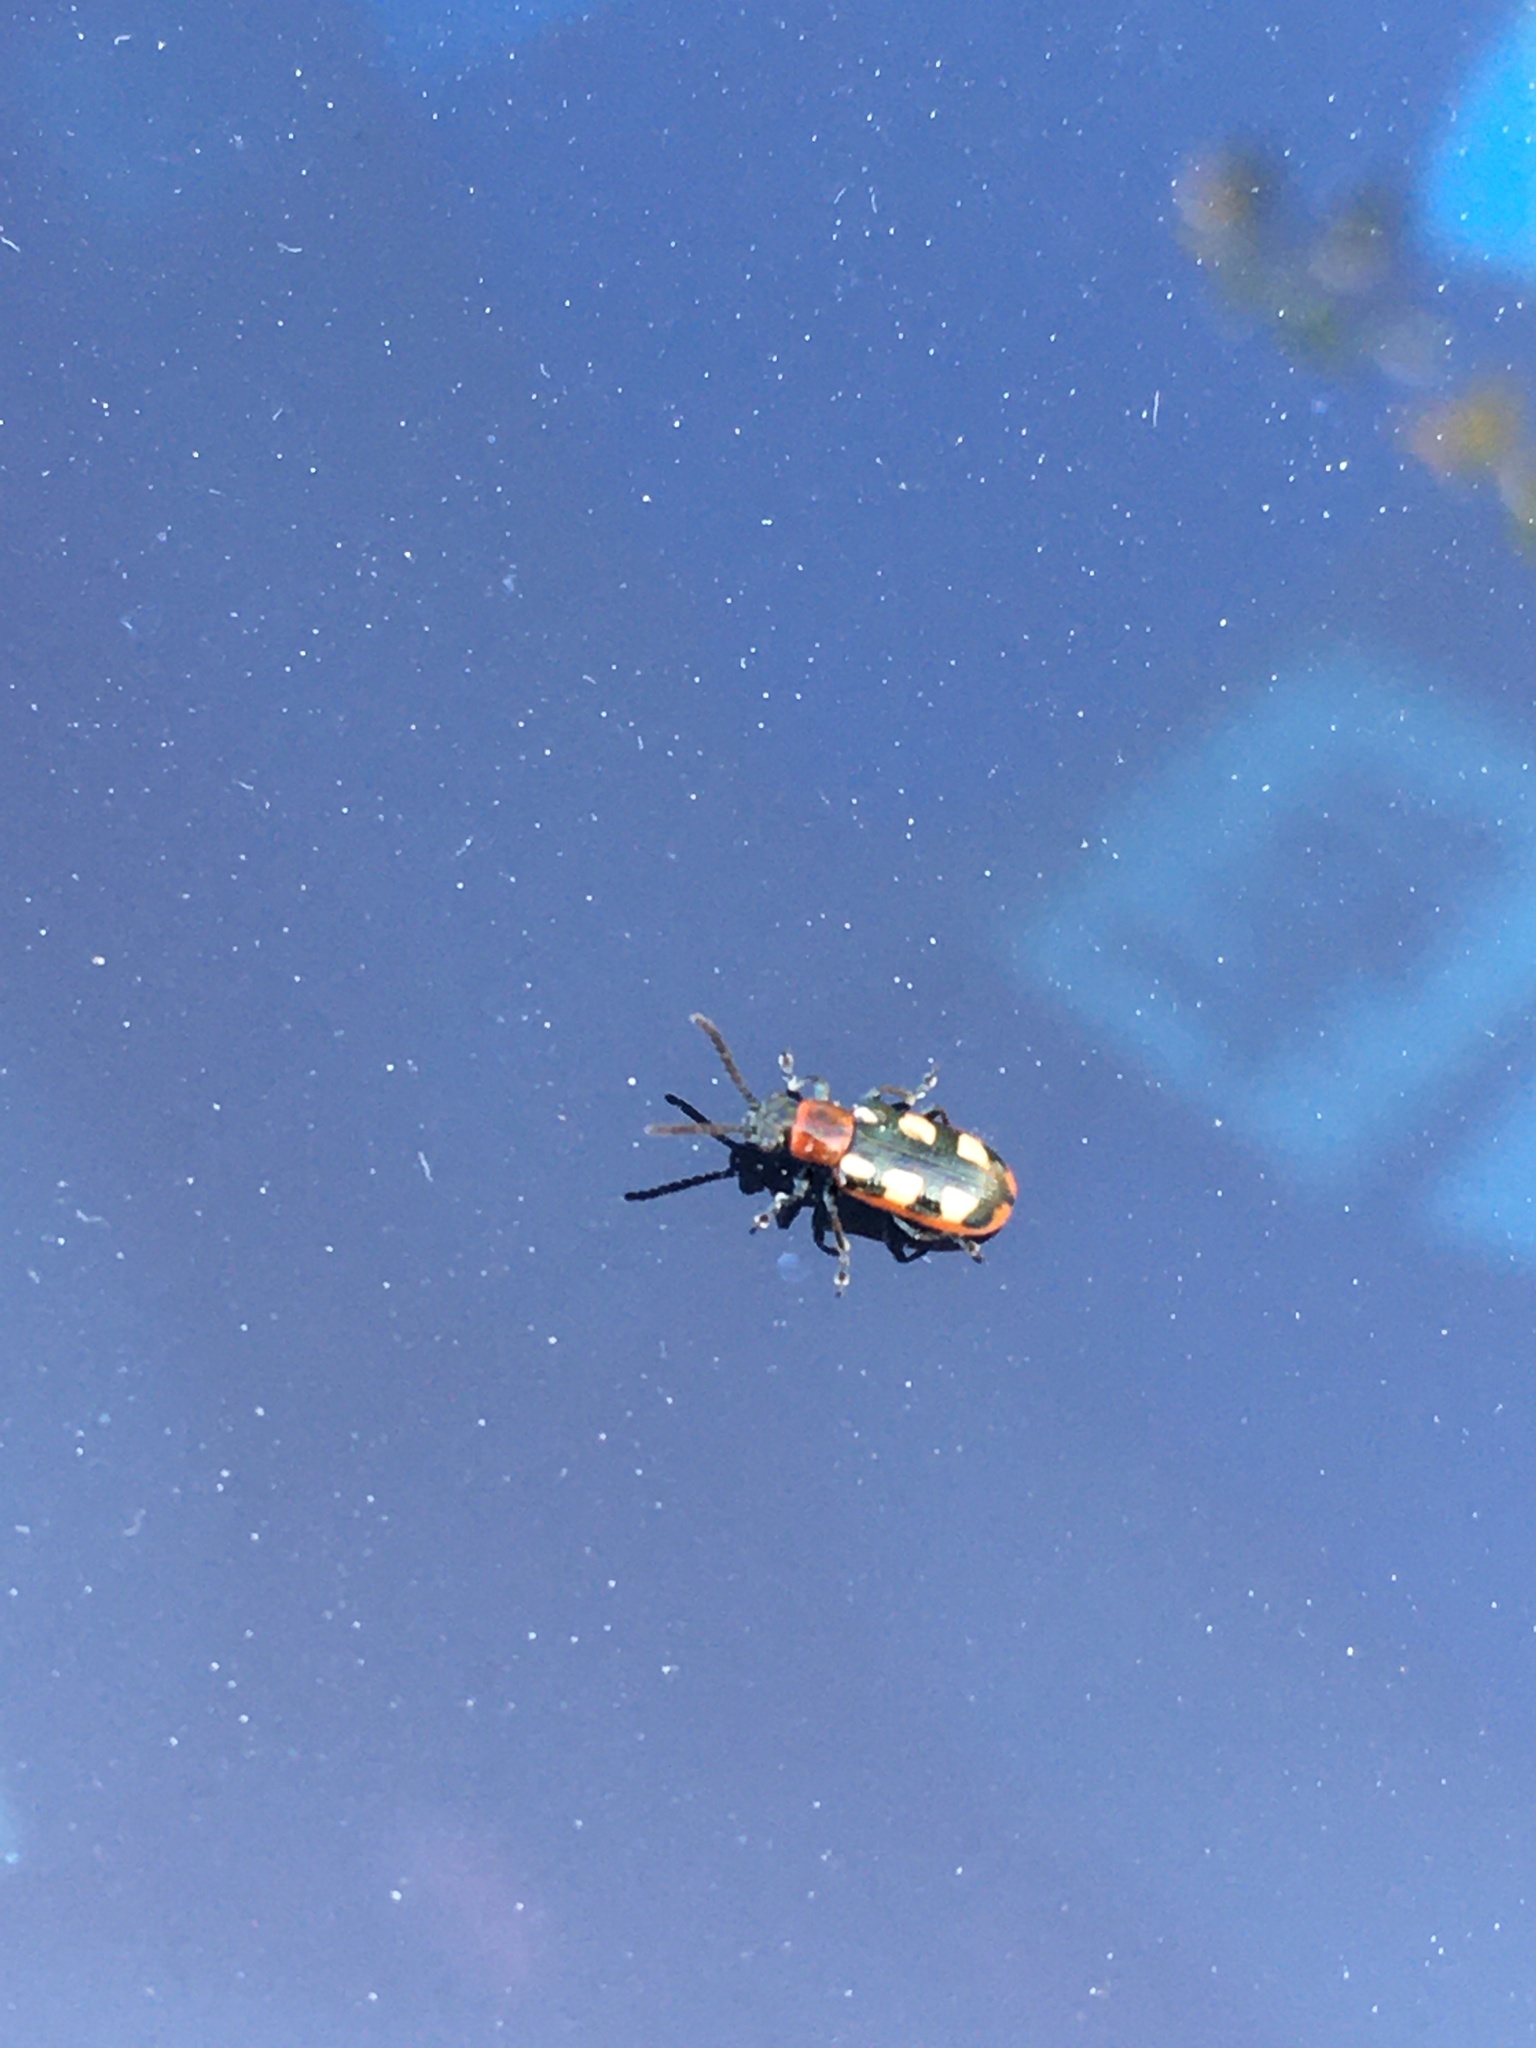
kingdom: Animalia
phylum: Arthropoda
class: Insecta
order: Coleoptera
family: Chrysomelidae
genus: Crioceris
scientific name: Crioceris asparagi
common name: Asparagus beetle
